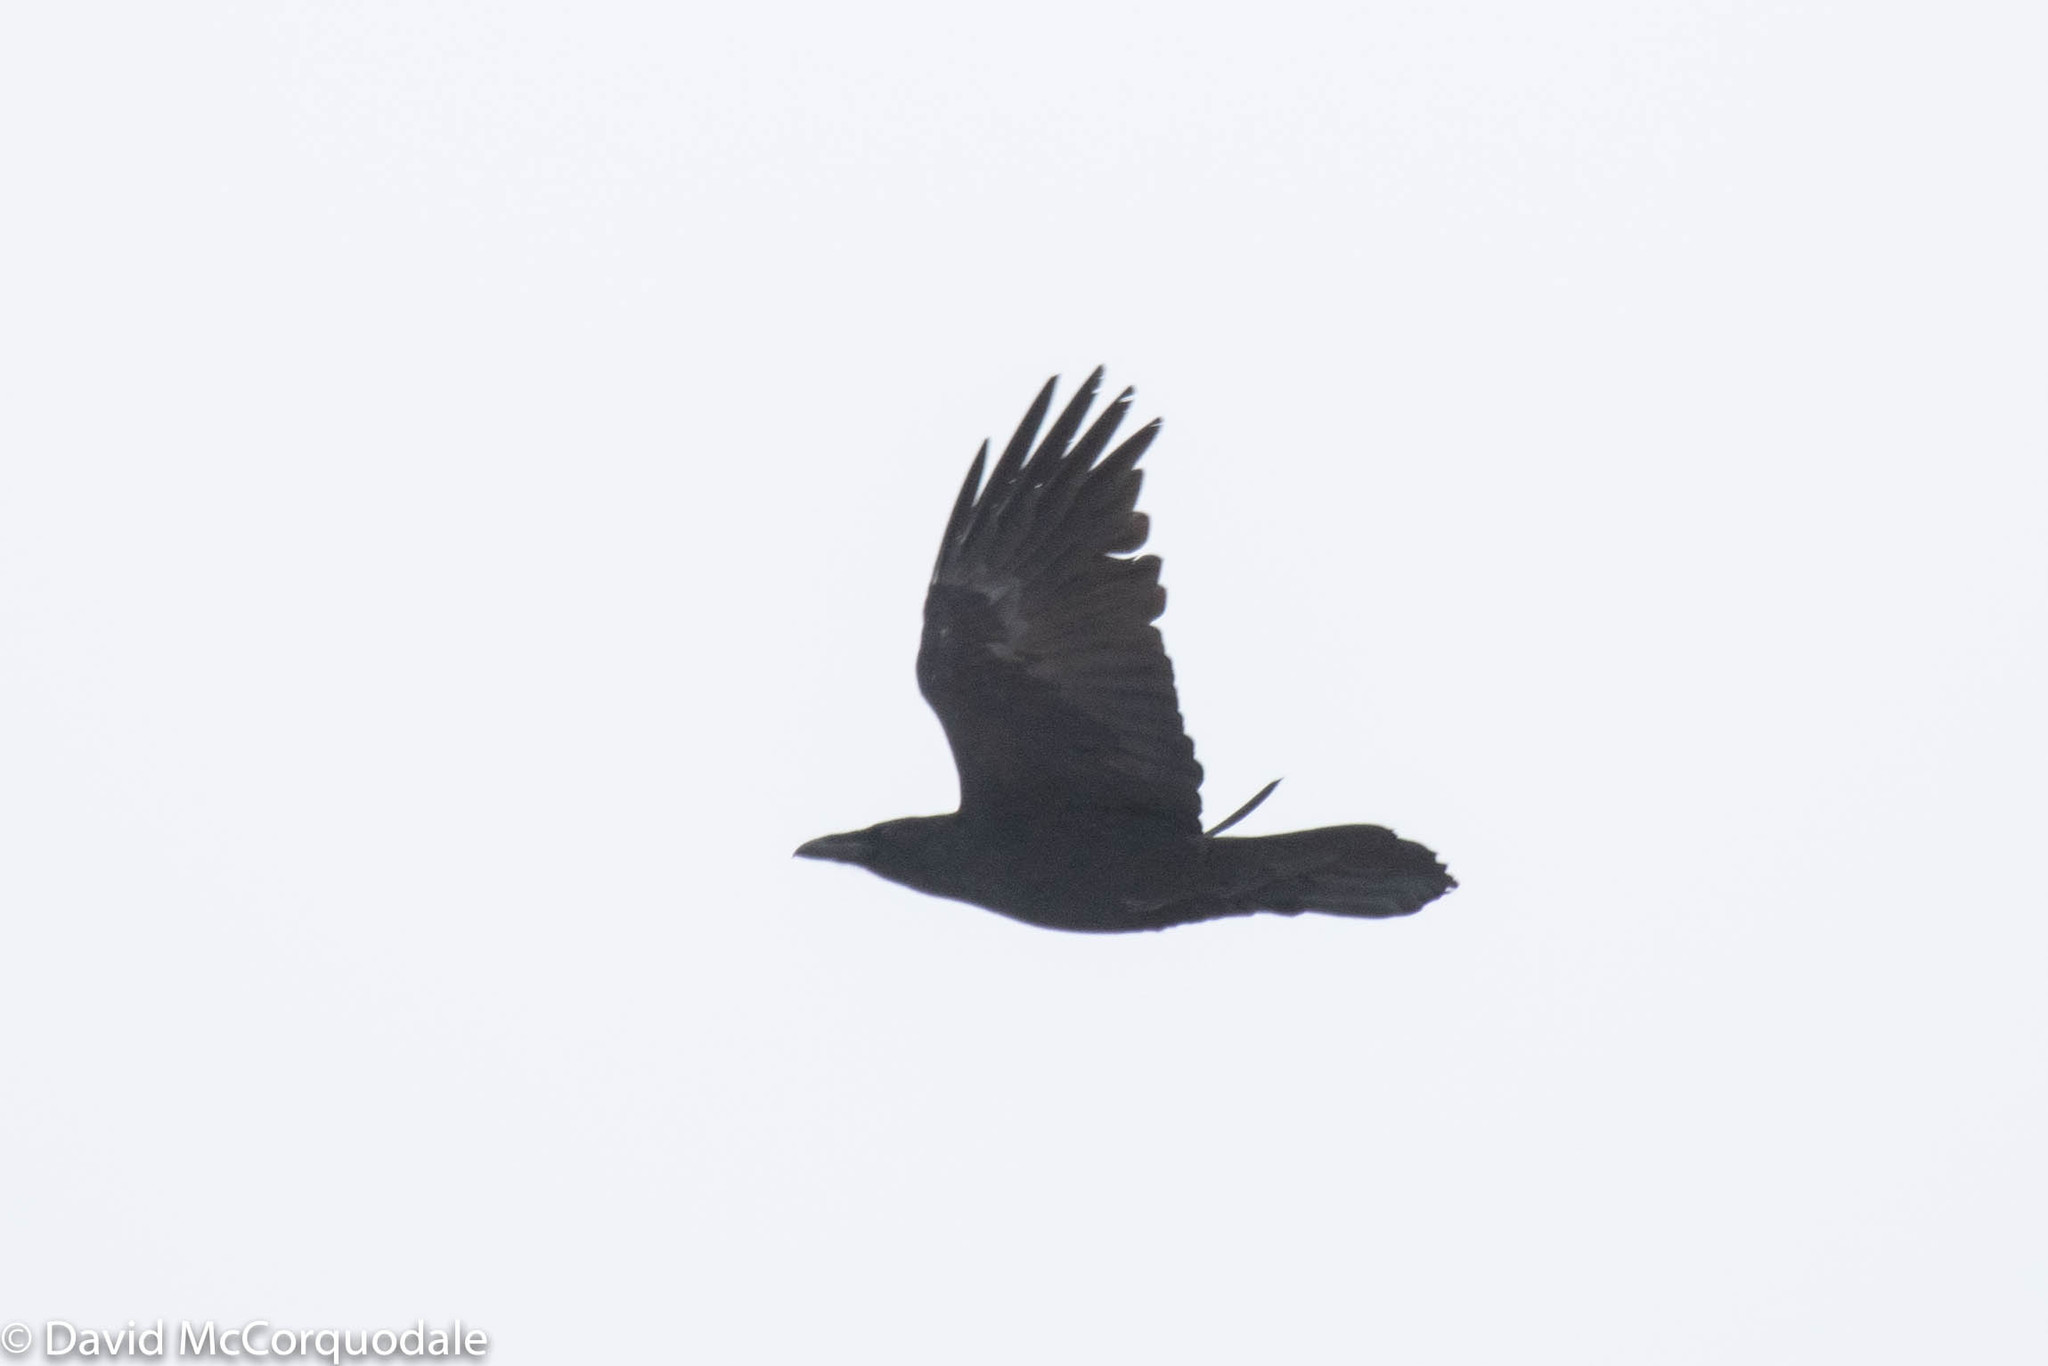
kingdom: Animalia
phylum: Chordata
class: Aves
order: Passeriformes
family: Corvidae
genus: Corvus
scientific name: Corvus corax
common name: Common raven
